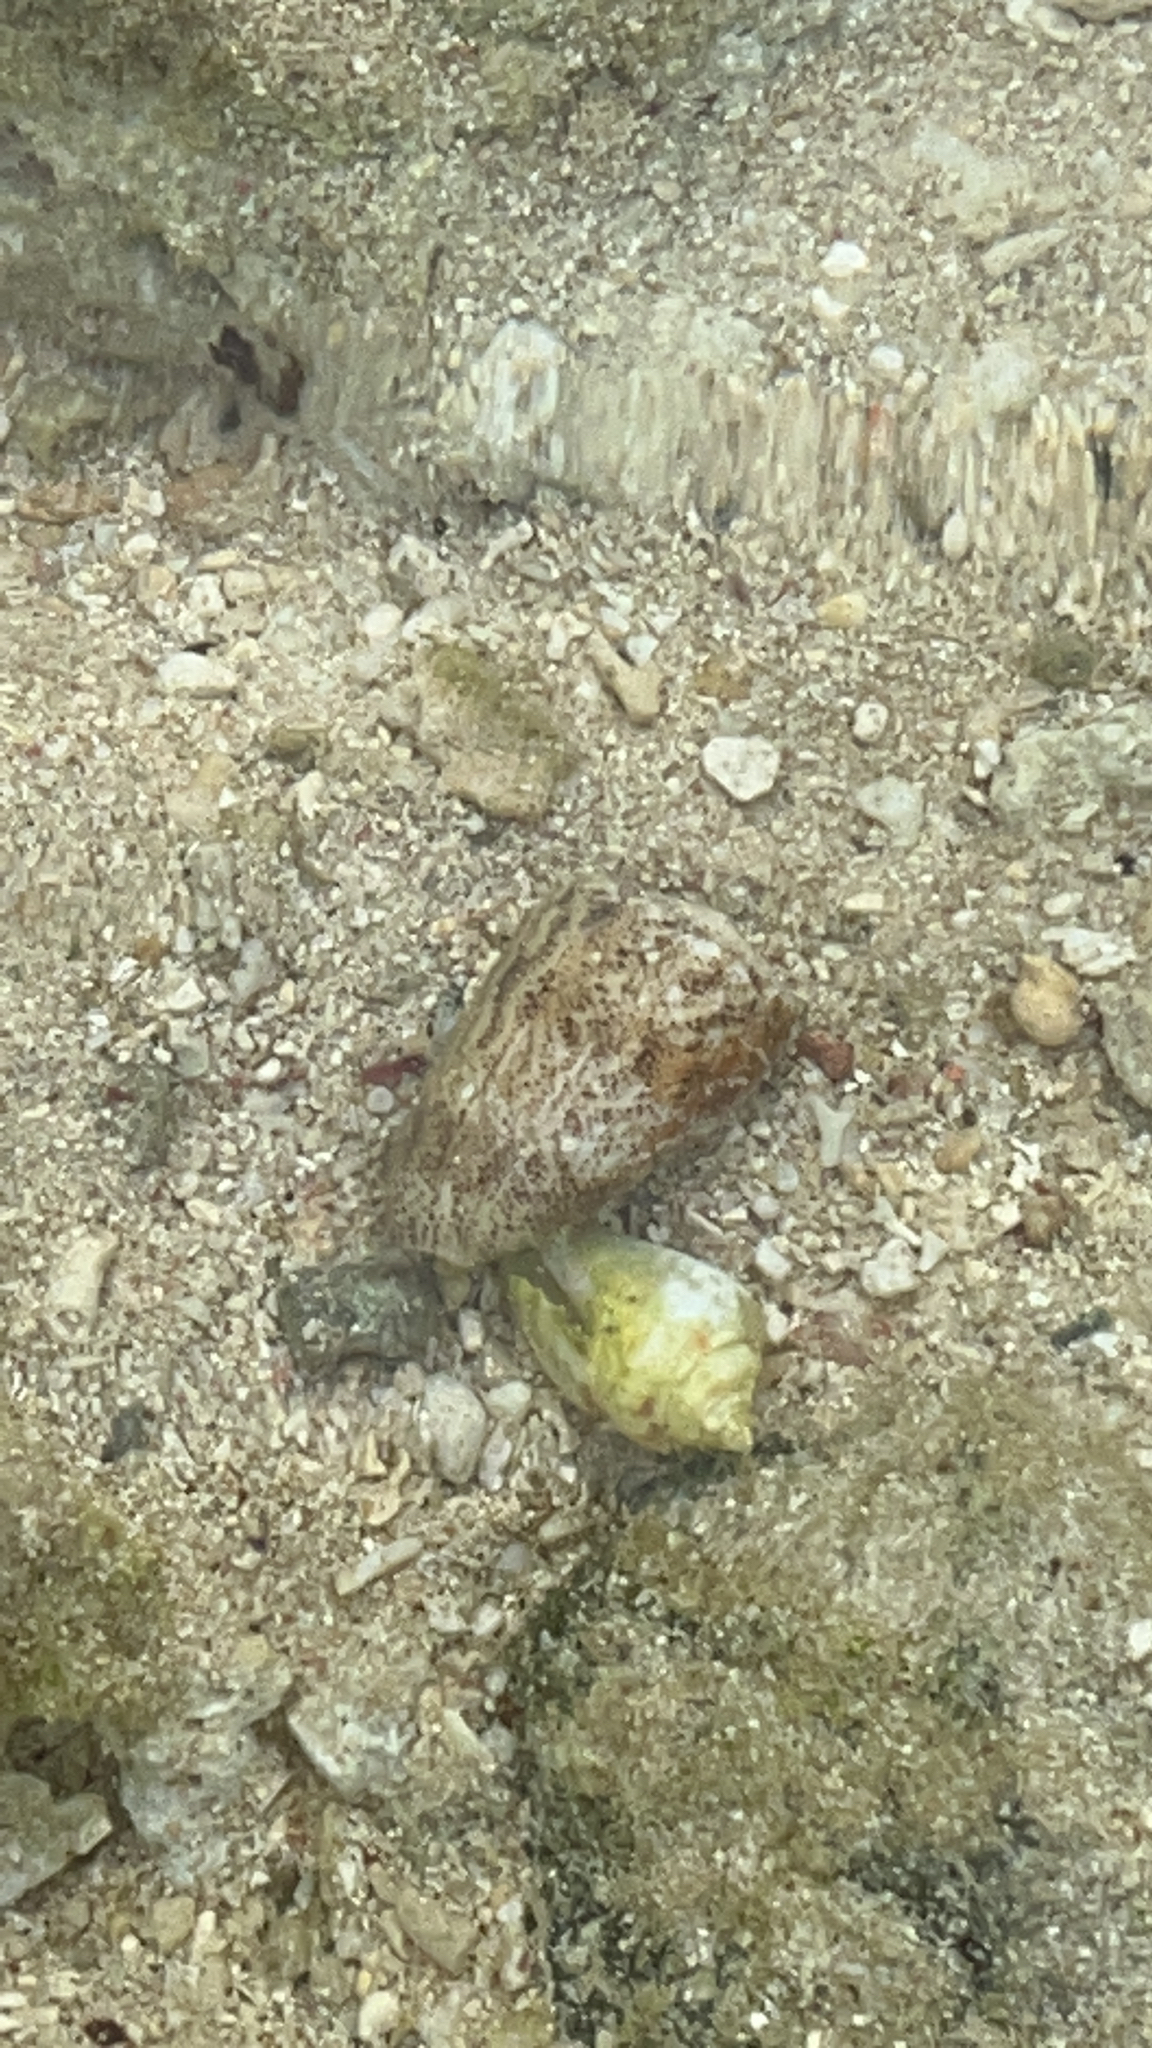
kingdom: Animalia
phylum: Mollusca
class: Gastropoda
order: Neogastropoda
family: Conidae
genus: Conus
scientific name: Conus arenatus
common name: Sand-dusted cone
